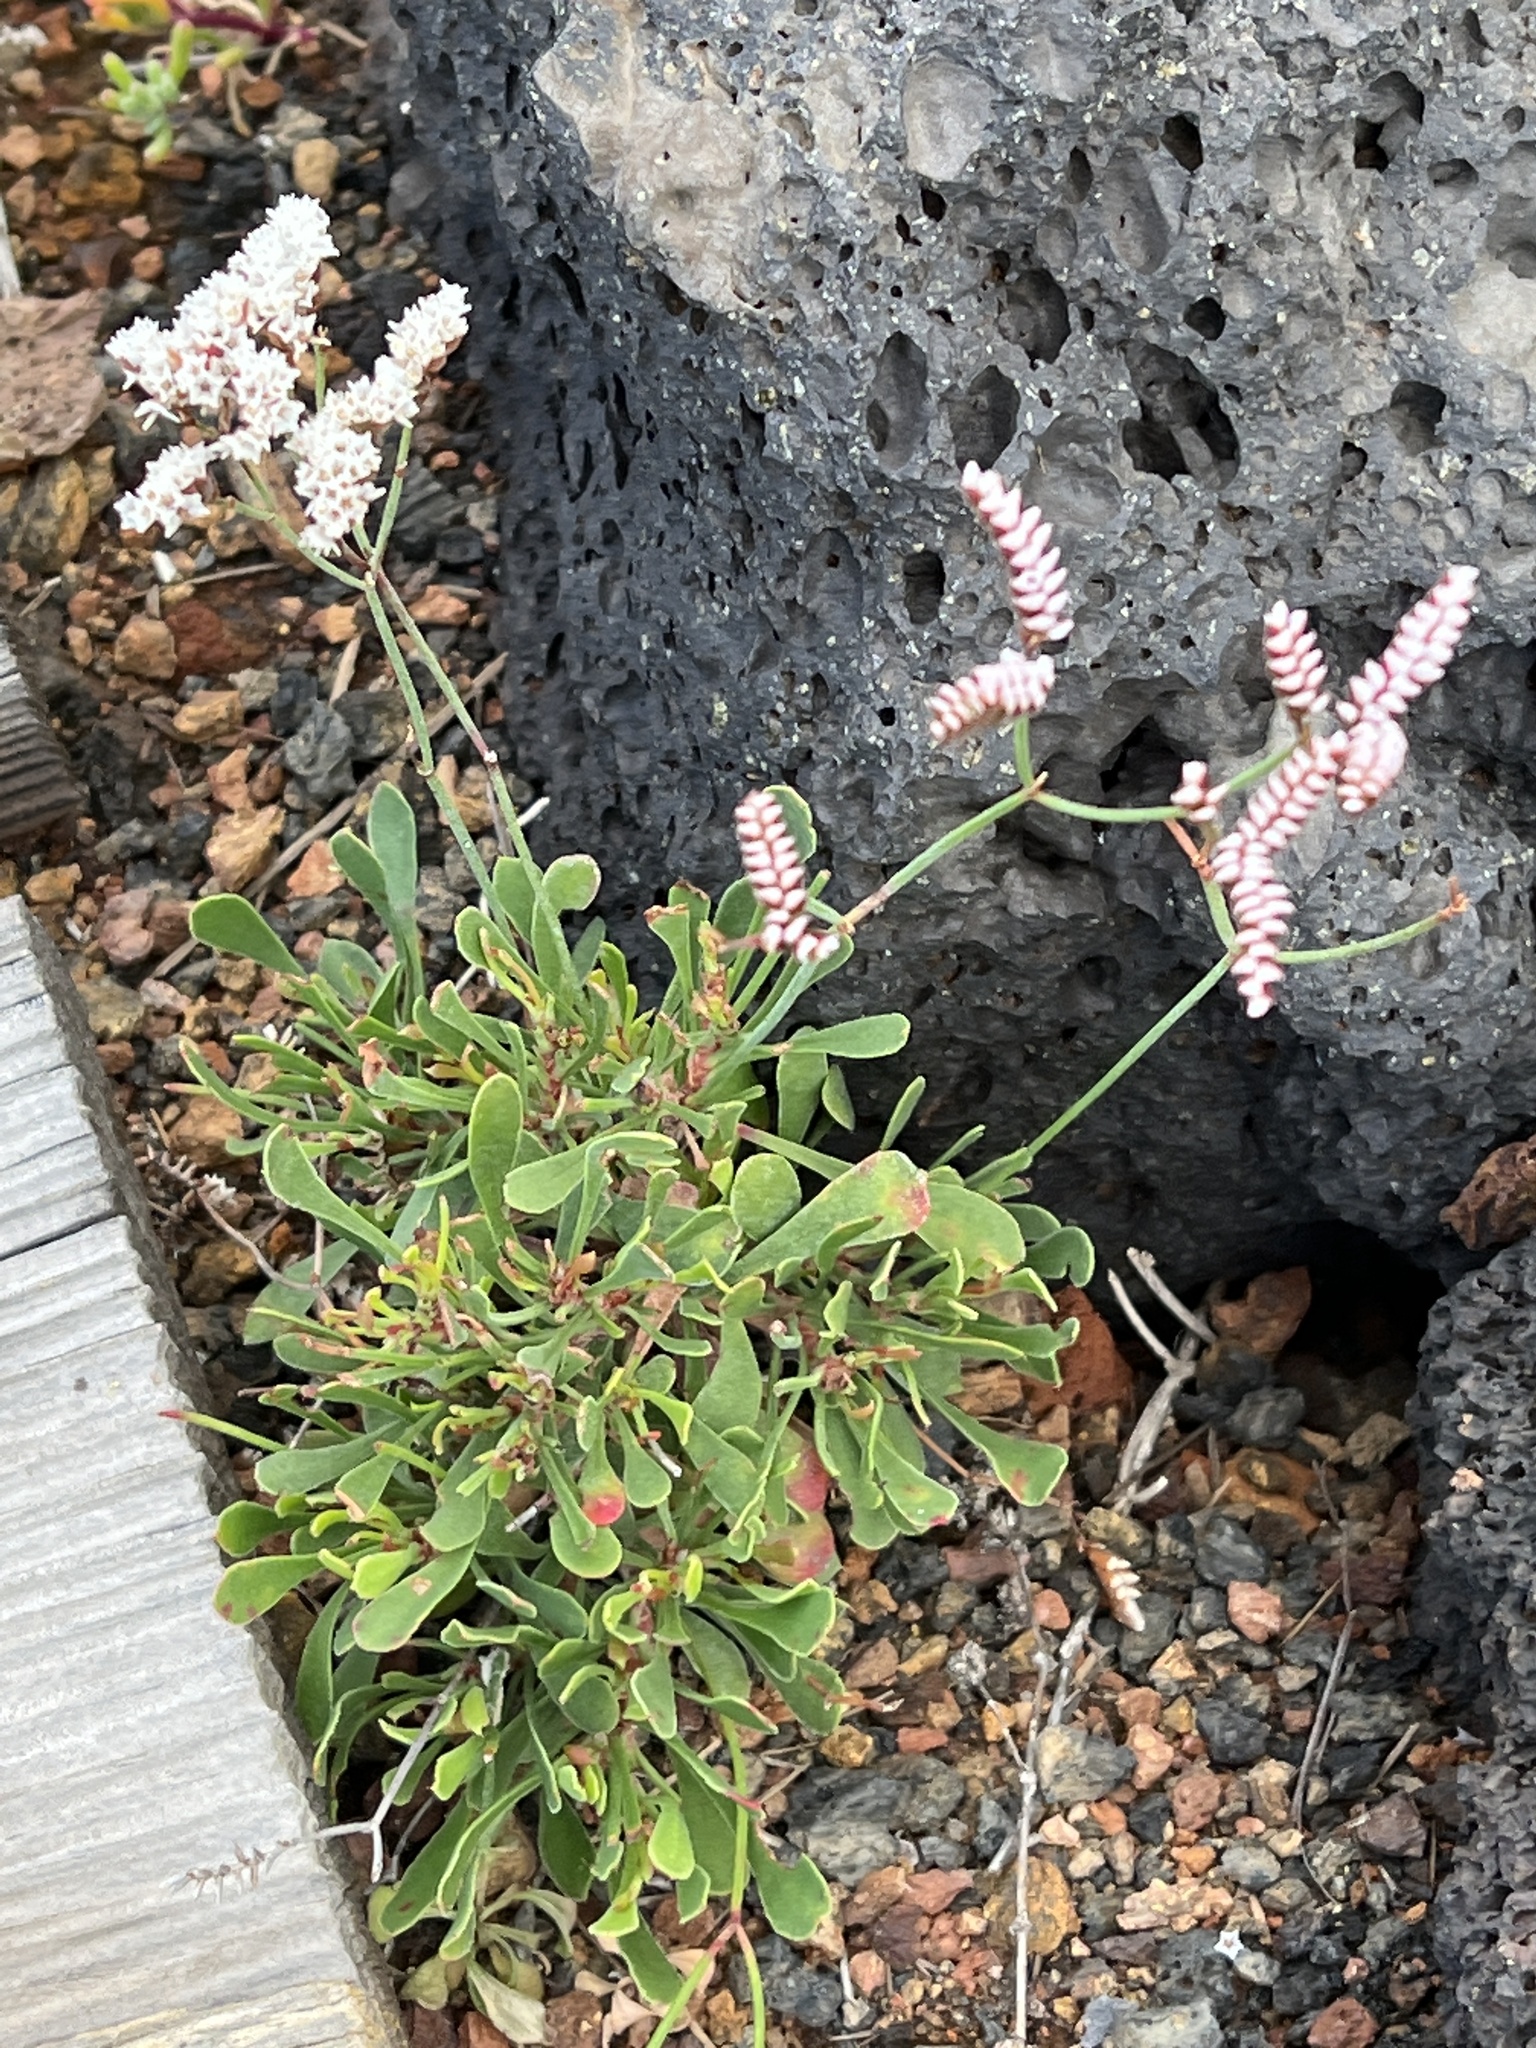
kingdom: Plantae
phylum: Tracheophyta
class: Magnoliopsida
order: Caryophyllales
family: Plumbaginaceae
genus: Limonium
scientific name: Limonium pectinatum
